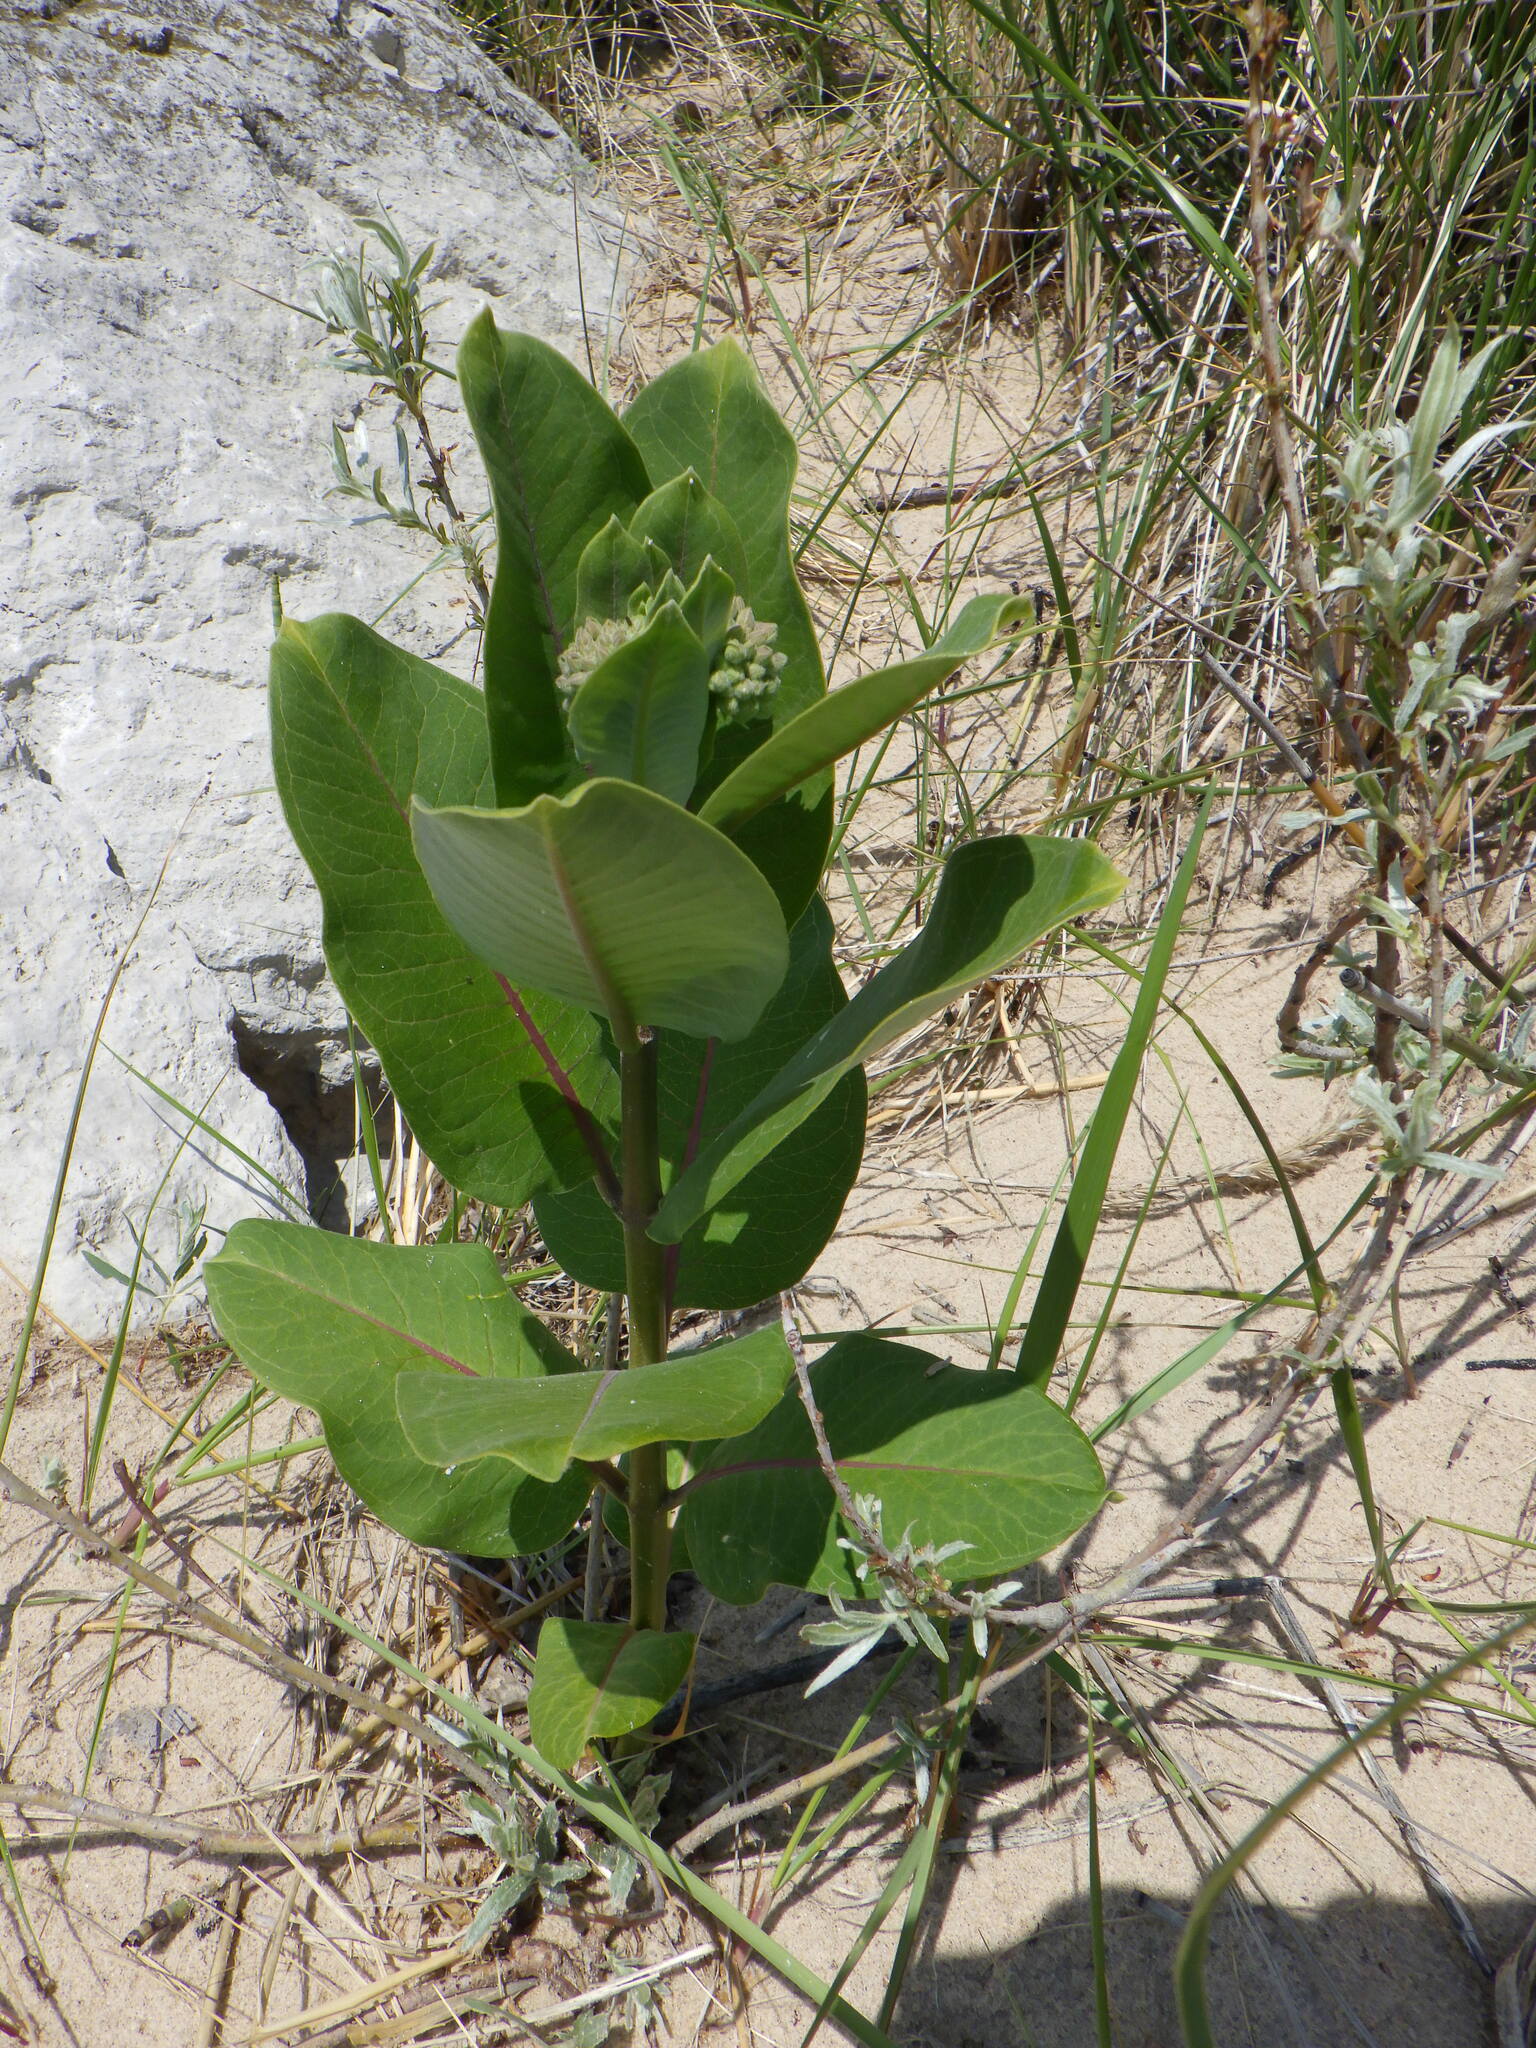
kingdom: Plantae
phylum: Tracheophyta
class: Magnoliopsida
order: Gentianales
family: Apocynaceae
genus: Asclepias
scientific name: Asclepias syriaca
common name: Common milkweed
